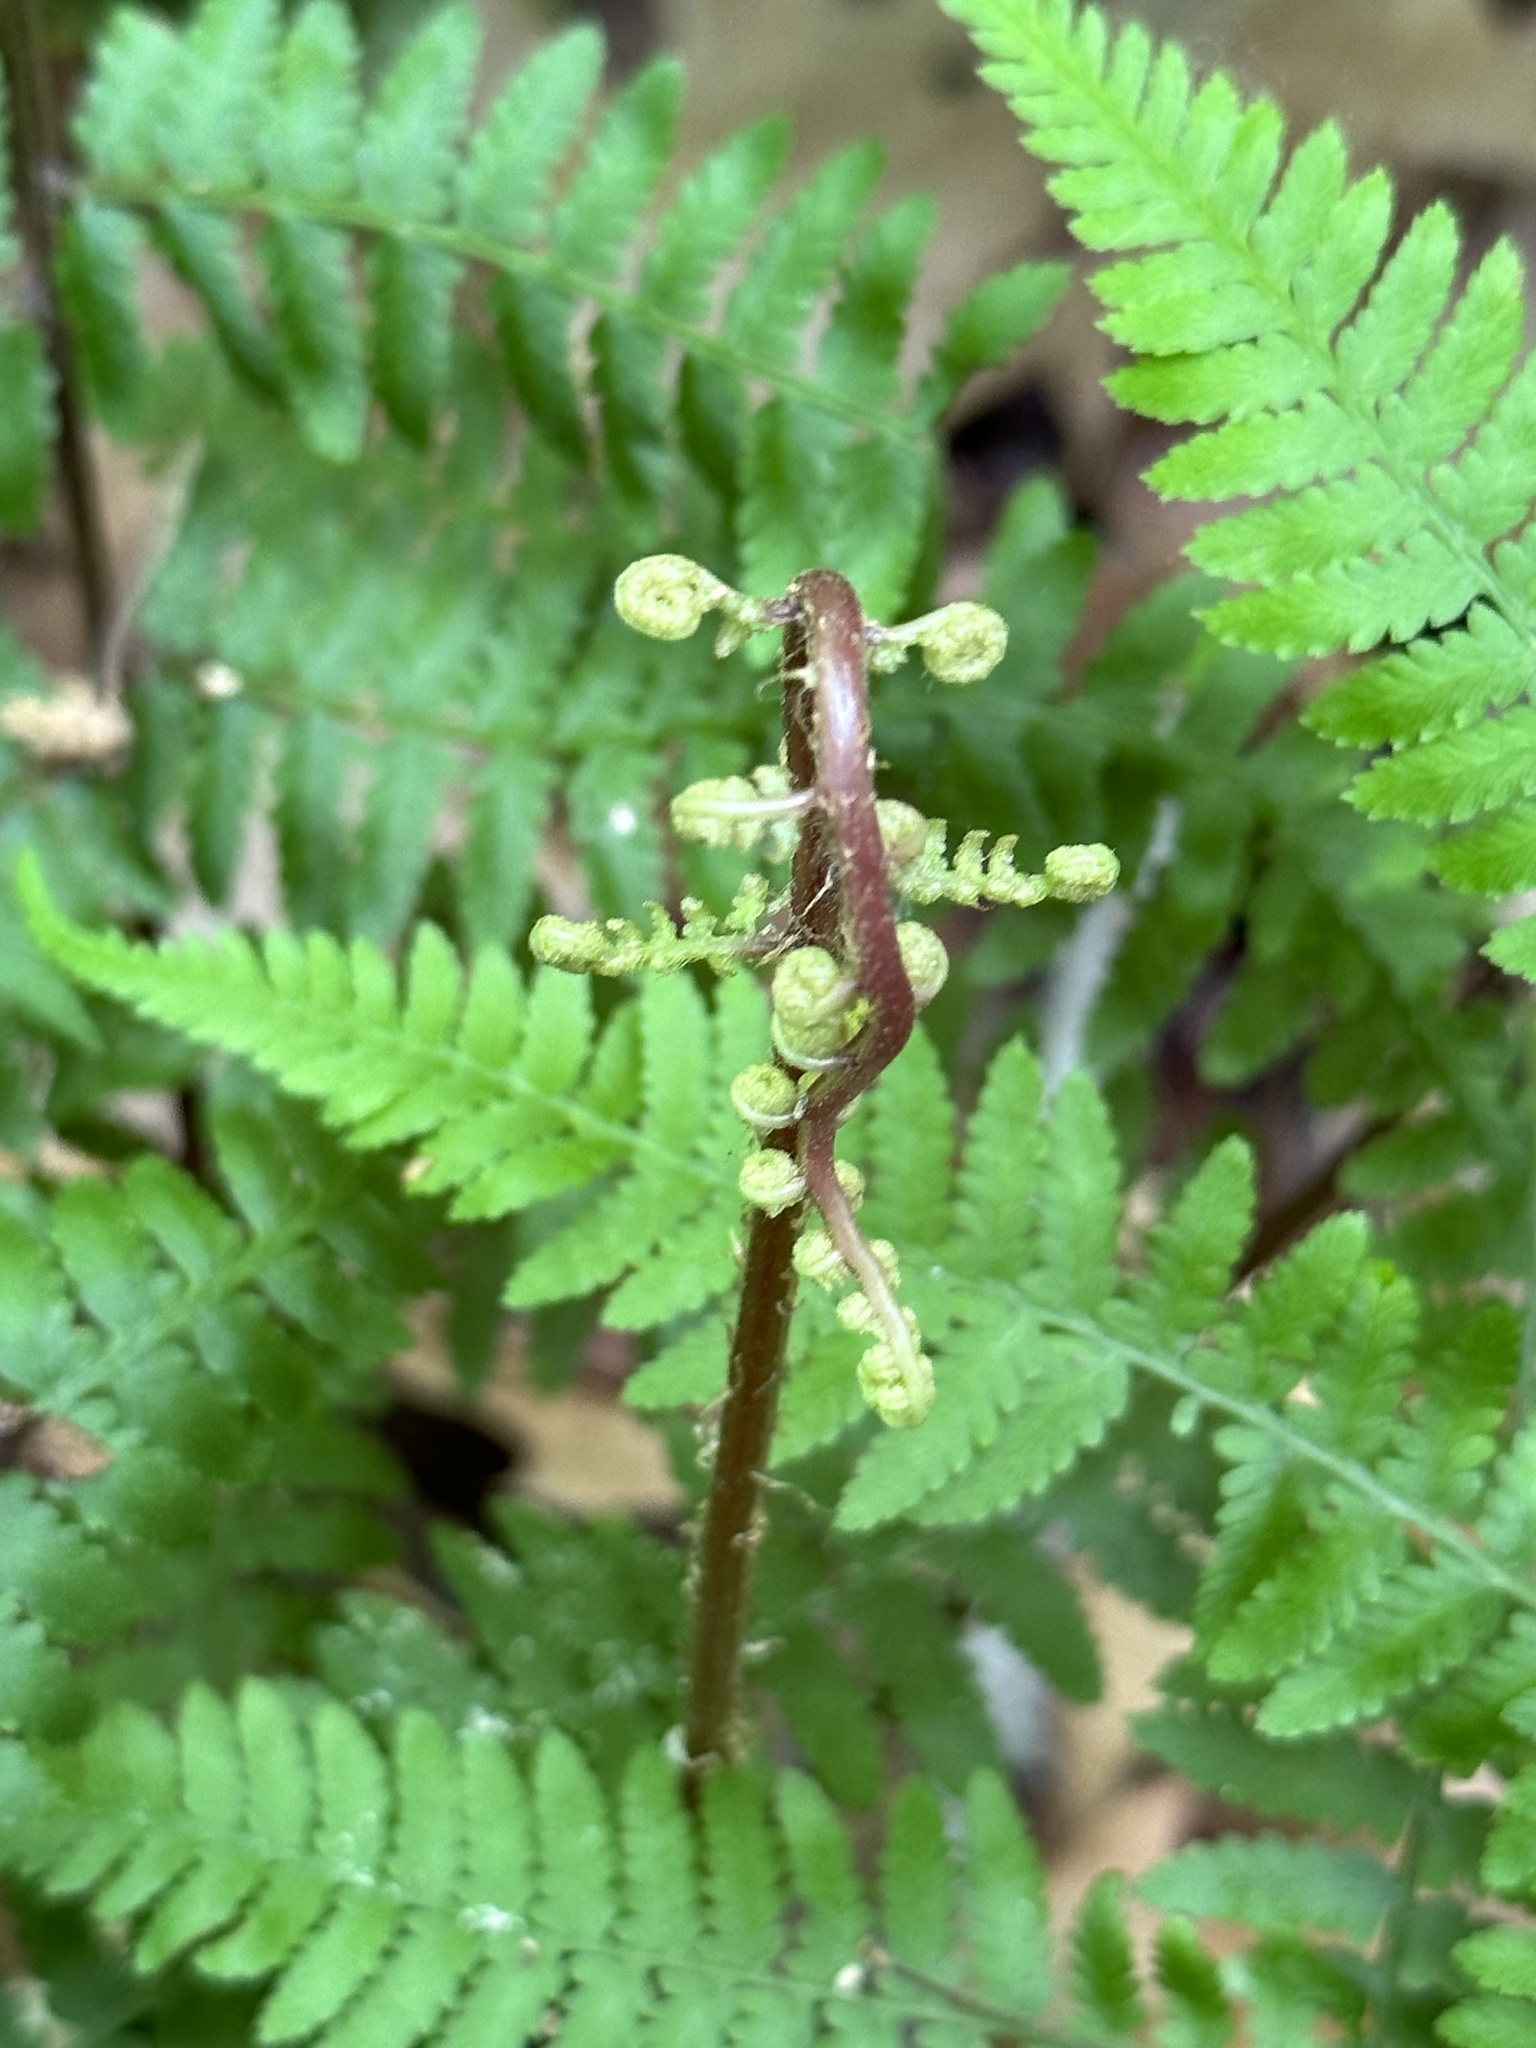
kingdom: Plantae
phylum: Tracheophyta
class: Polypodiopsida
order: Polypodiales
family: Athyriaceae
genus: Athyrium
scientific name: Athyrium asplenioides
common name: Southern lady fern
